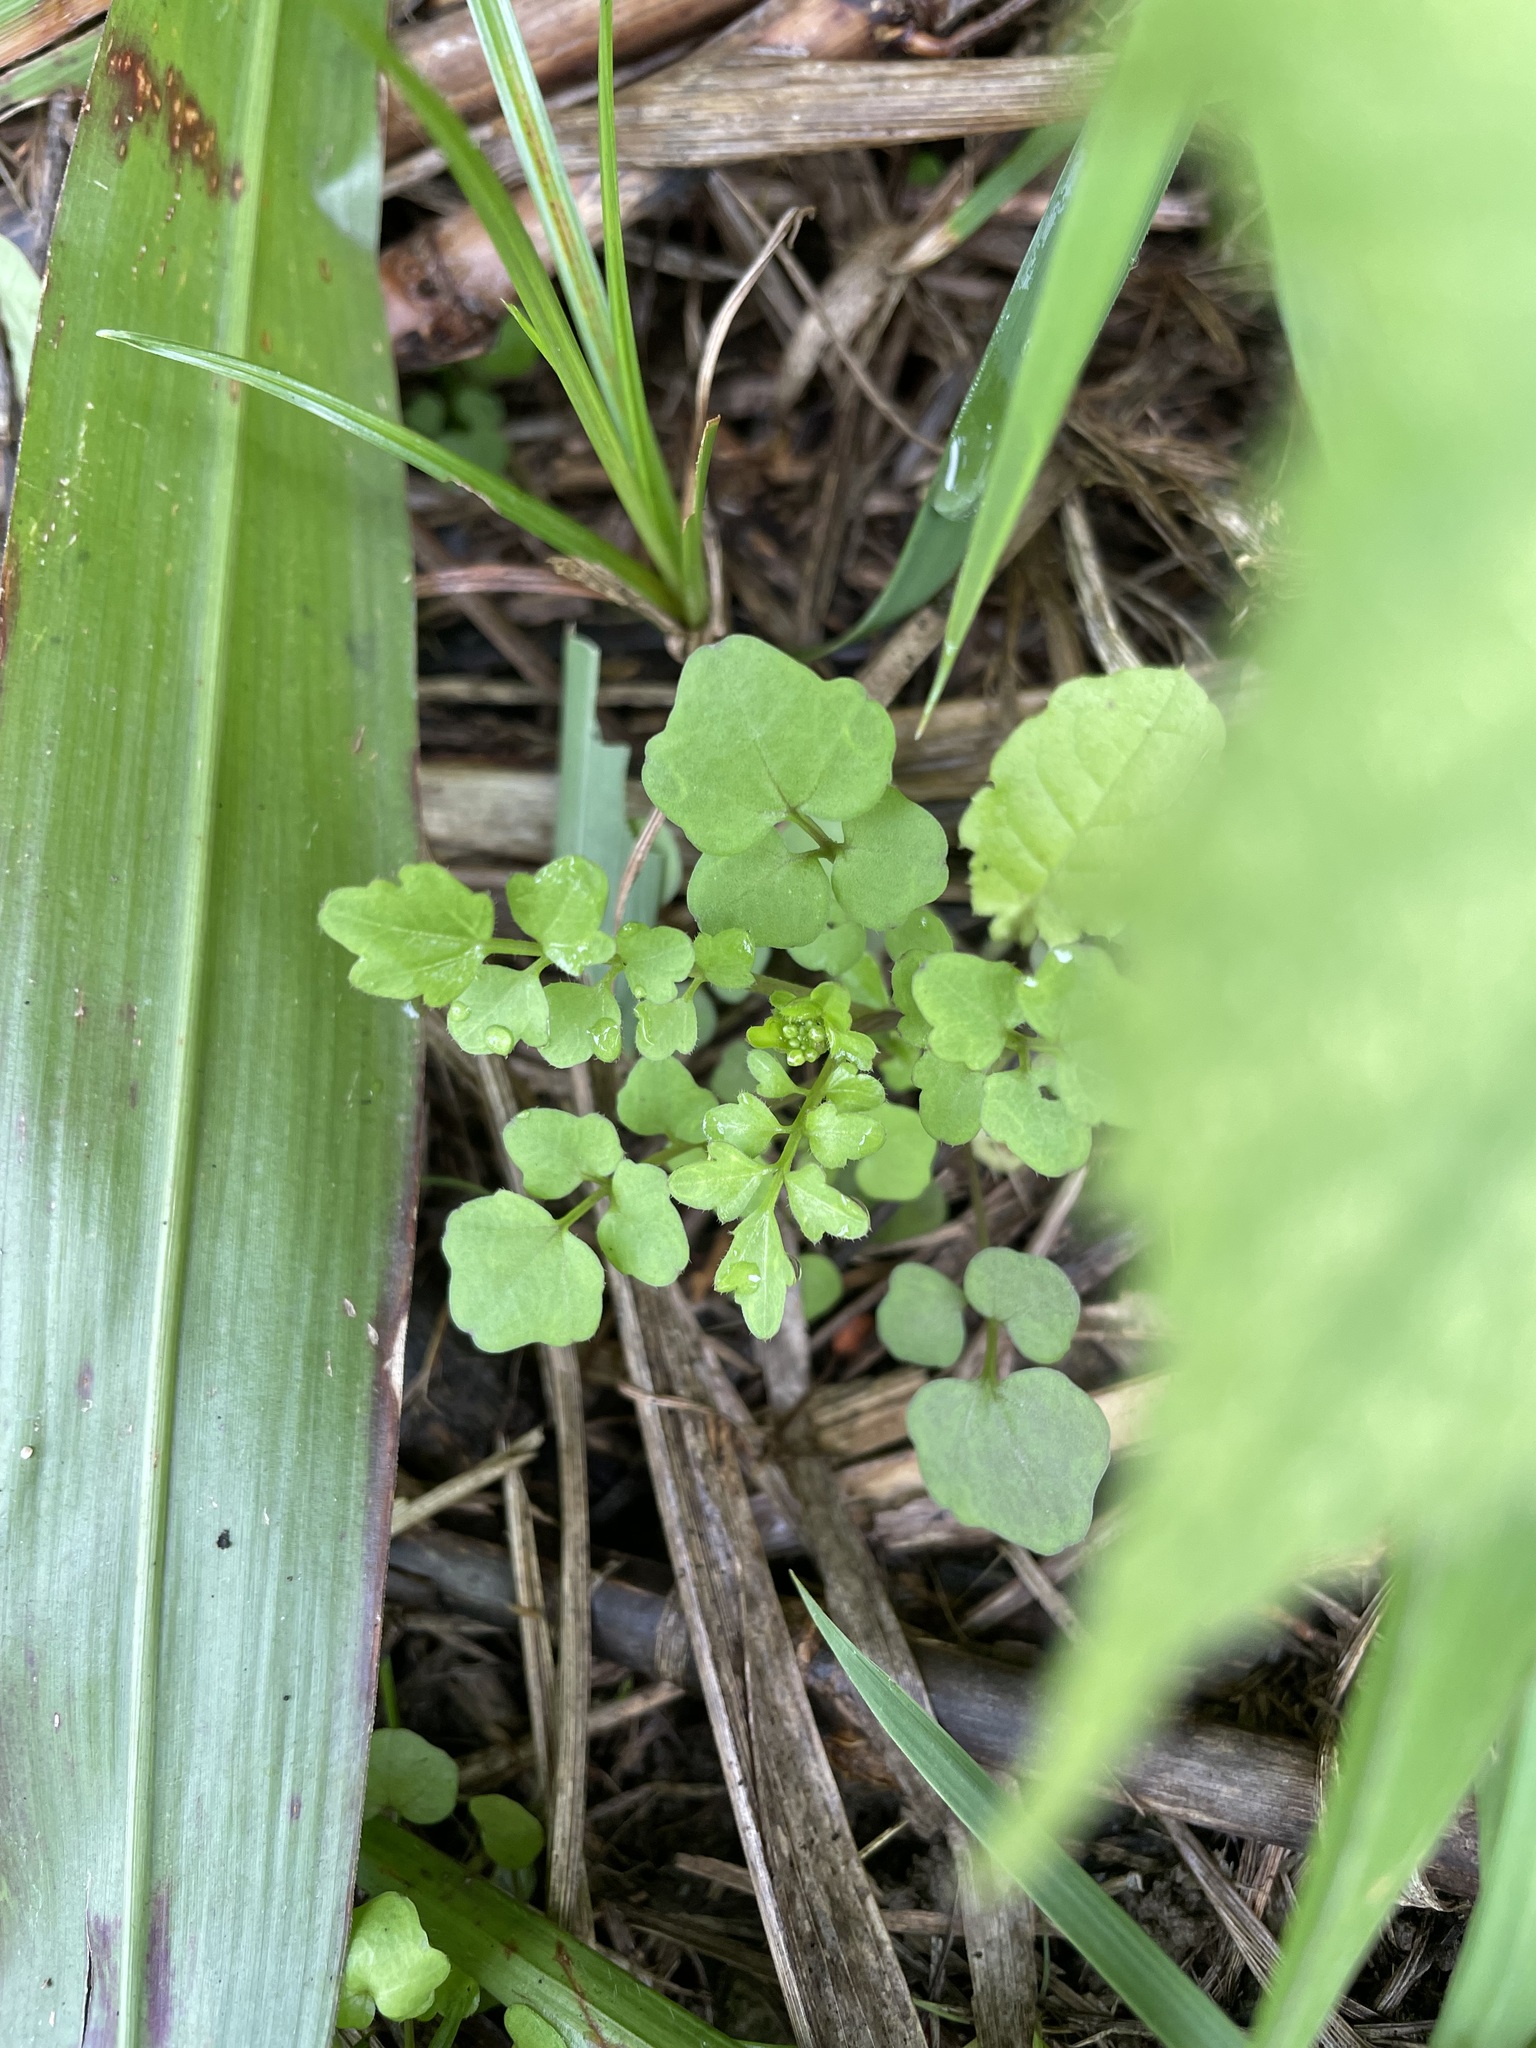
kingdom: Plantae
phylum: Tracheophyta
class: Magnoliopsida
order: Brassicales
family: Brassicaceae
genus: Cardamine
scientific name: Cardamine flexuosa
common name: Woodland bittercress
